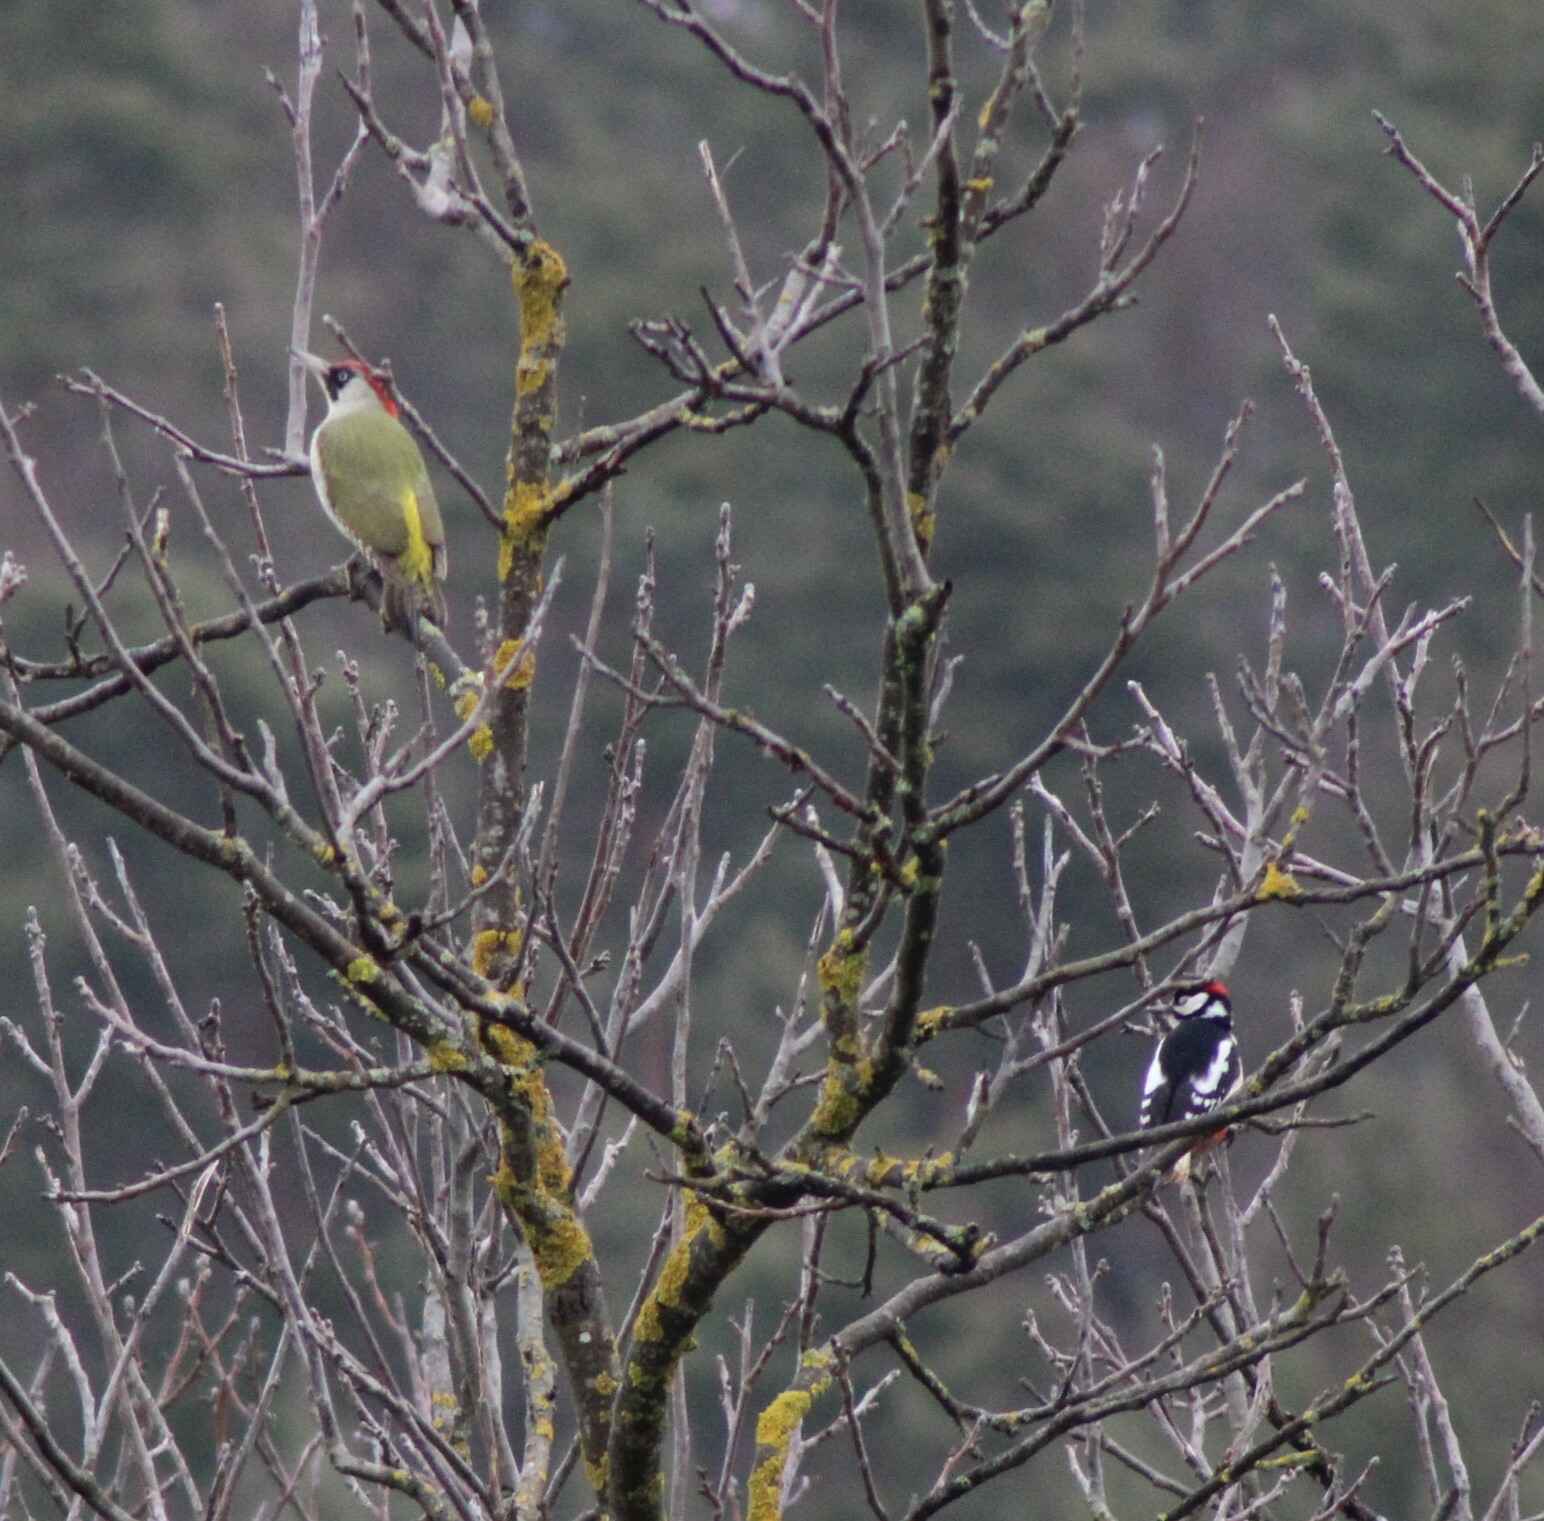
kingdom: Animalia
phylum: Chordata
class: Aves
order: Piciformes
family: Picidae
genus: Dendrocopos
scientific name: Dendrocopos major
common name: Great spotted woodpecker
